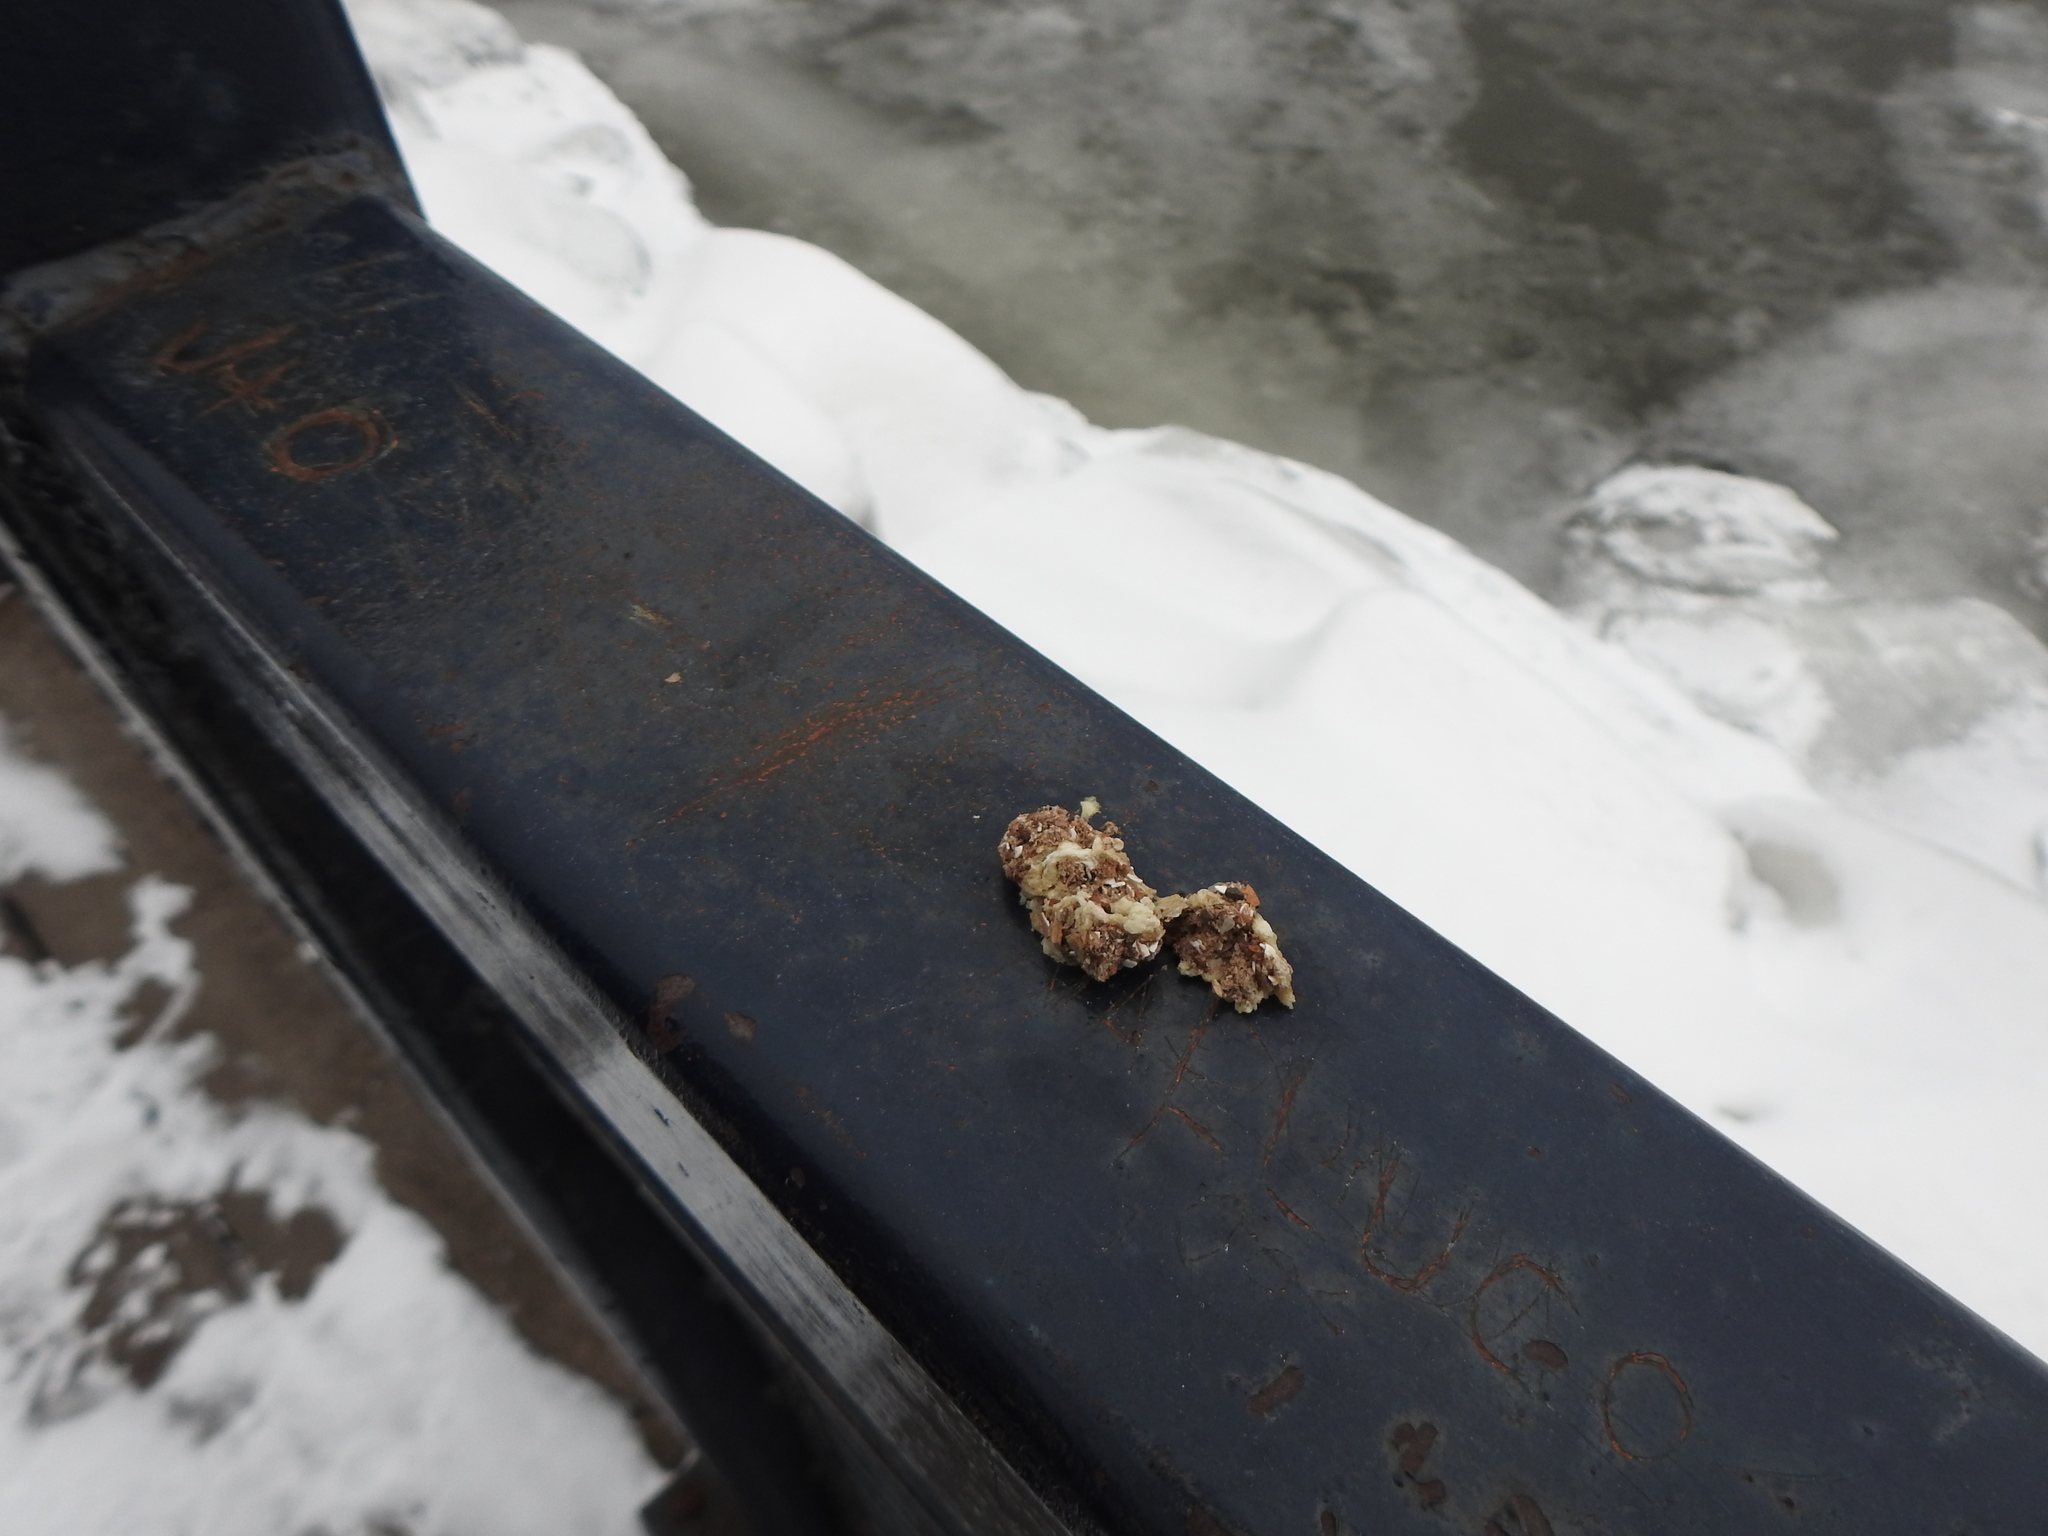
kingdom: Animalia
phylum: Chordata
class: Aves
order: Columbiformes
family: Columbidae
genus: Columba
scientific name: Columba livia
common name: Rock pigeon
